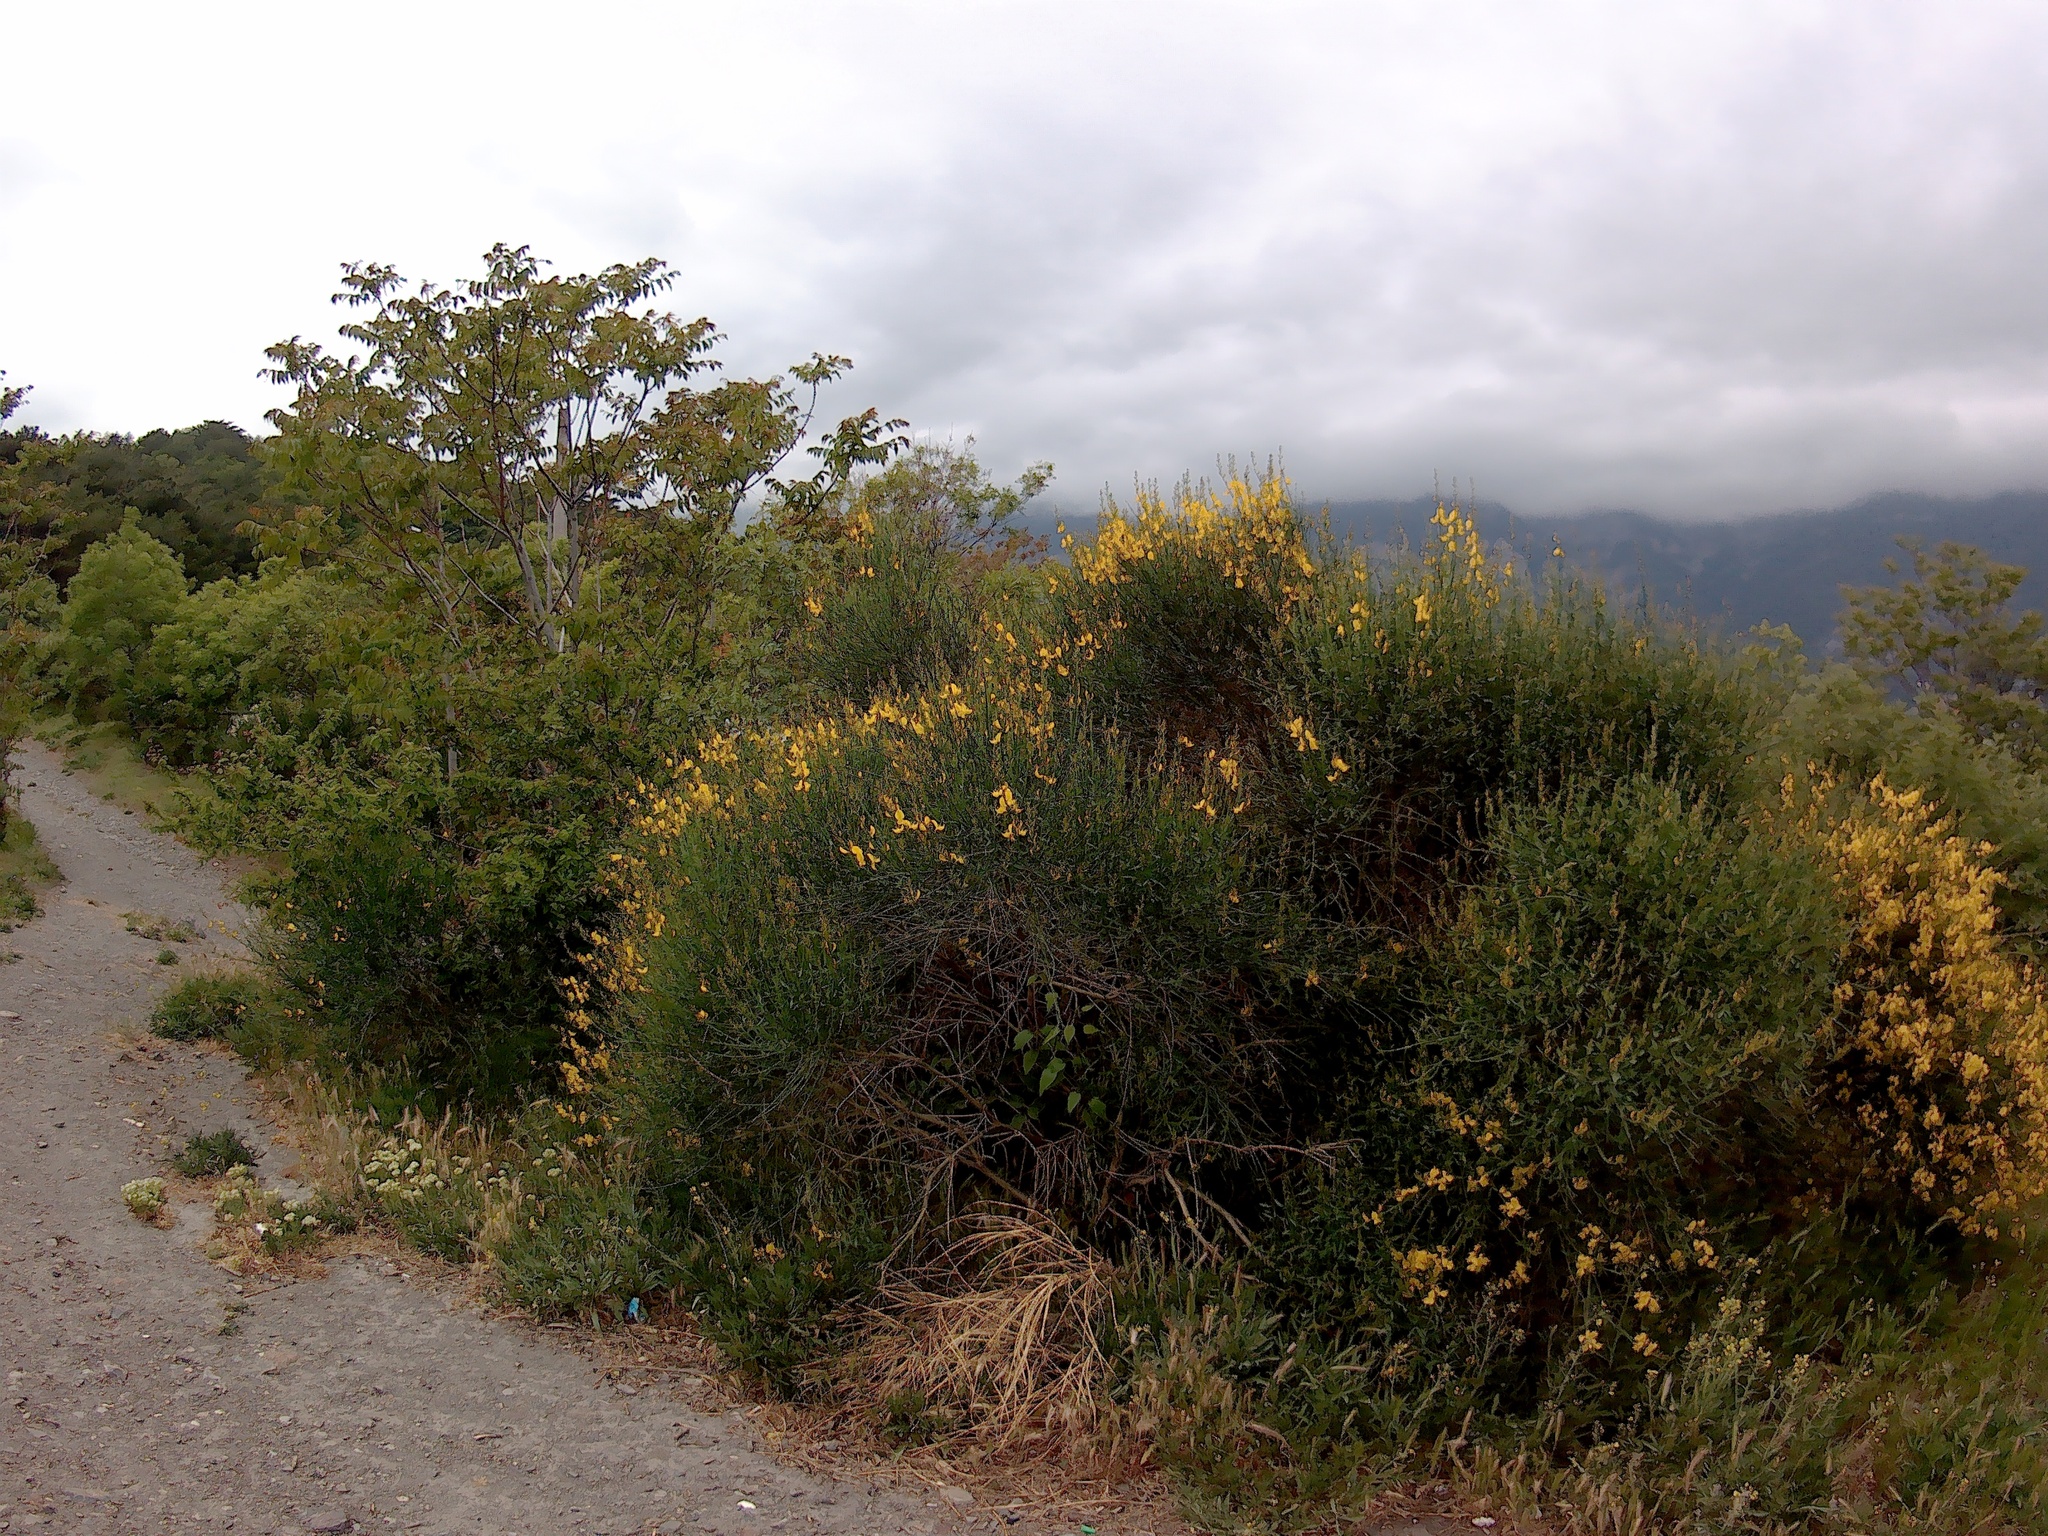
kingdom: Plantae
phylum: Tracheophyta
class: Magnoliopsida
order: Fabales
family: Fabaceae
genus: Spartium
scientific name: Spartium junceum
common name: Spanish broom
